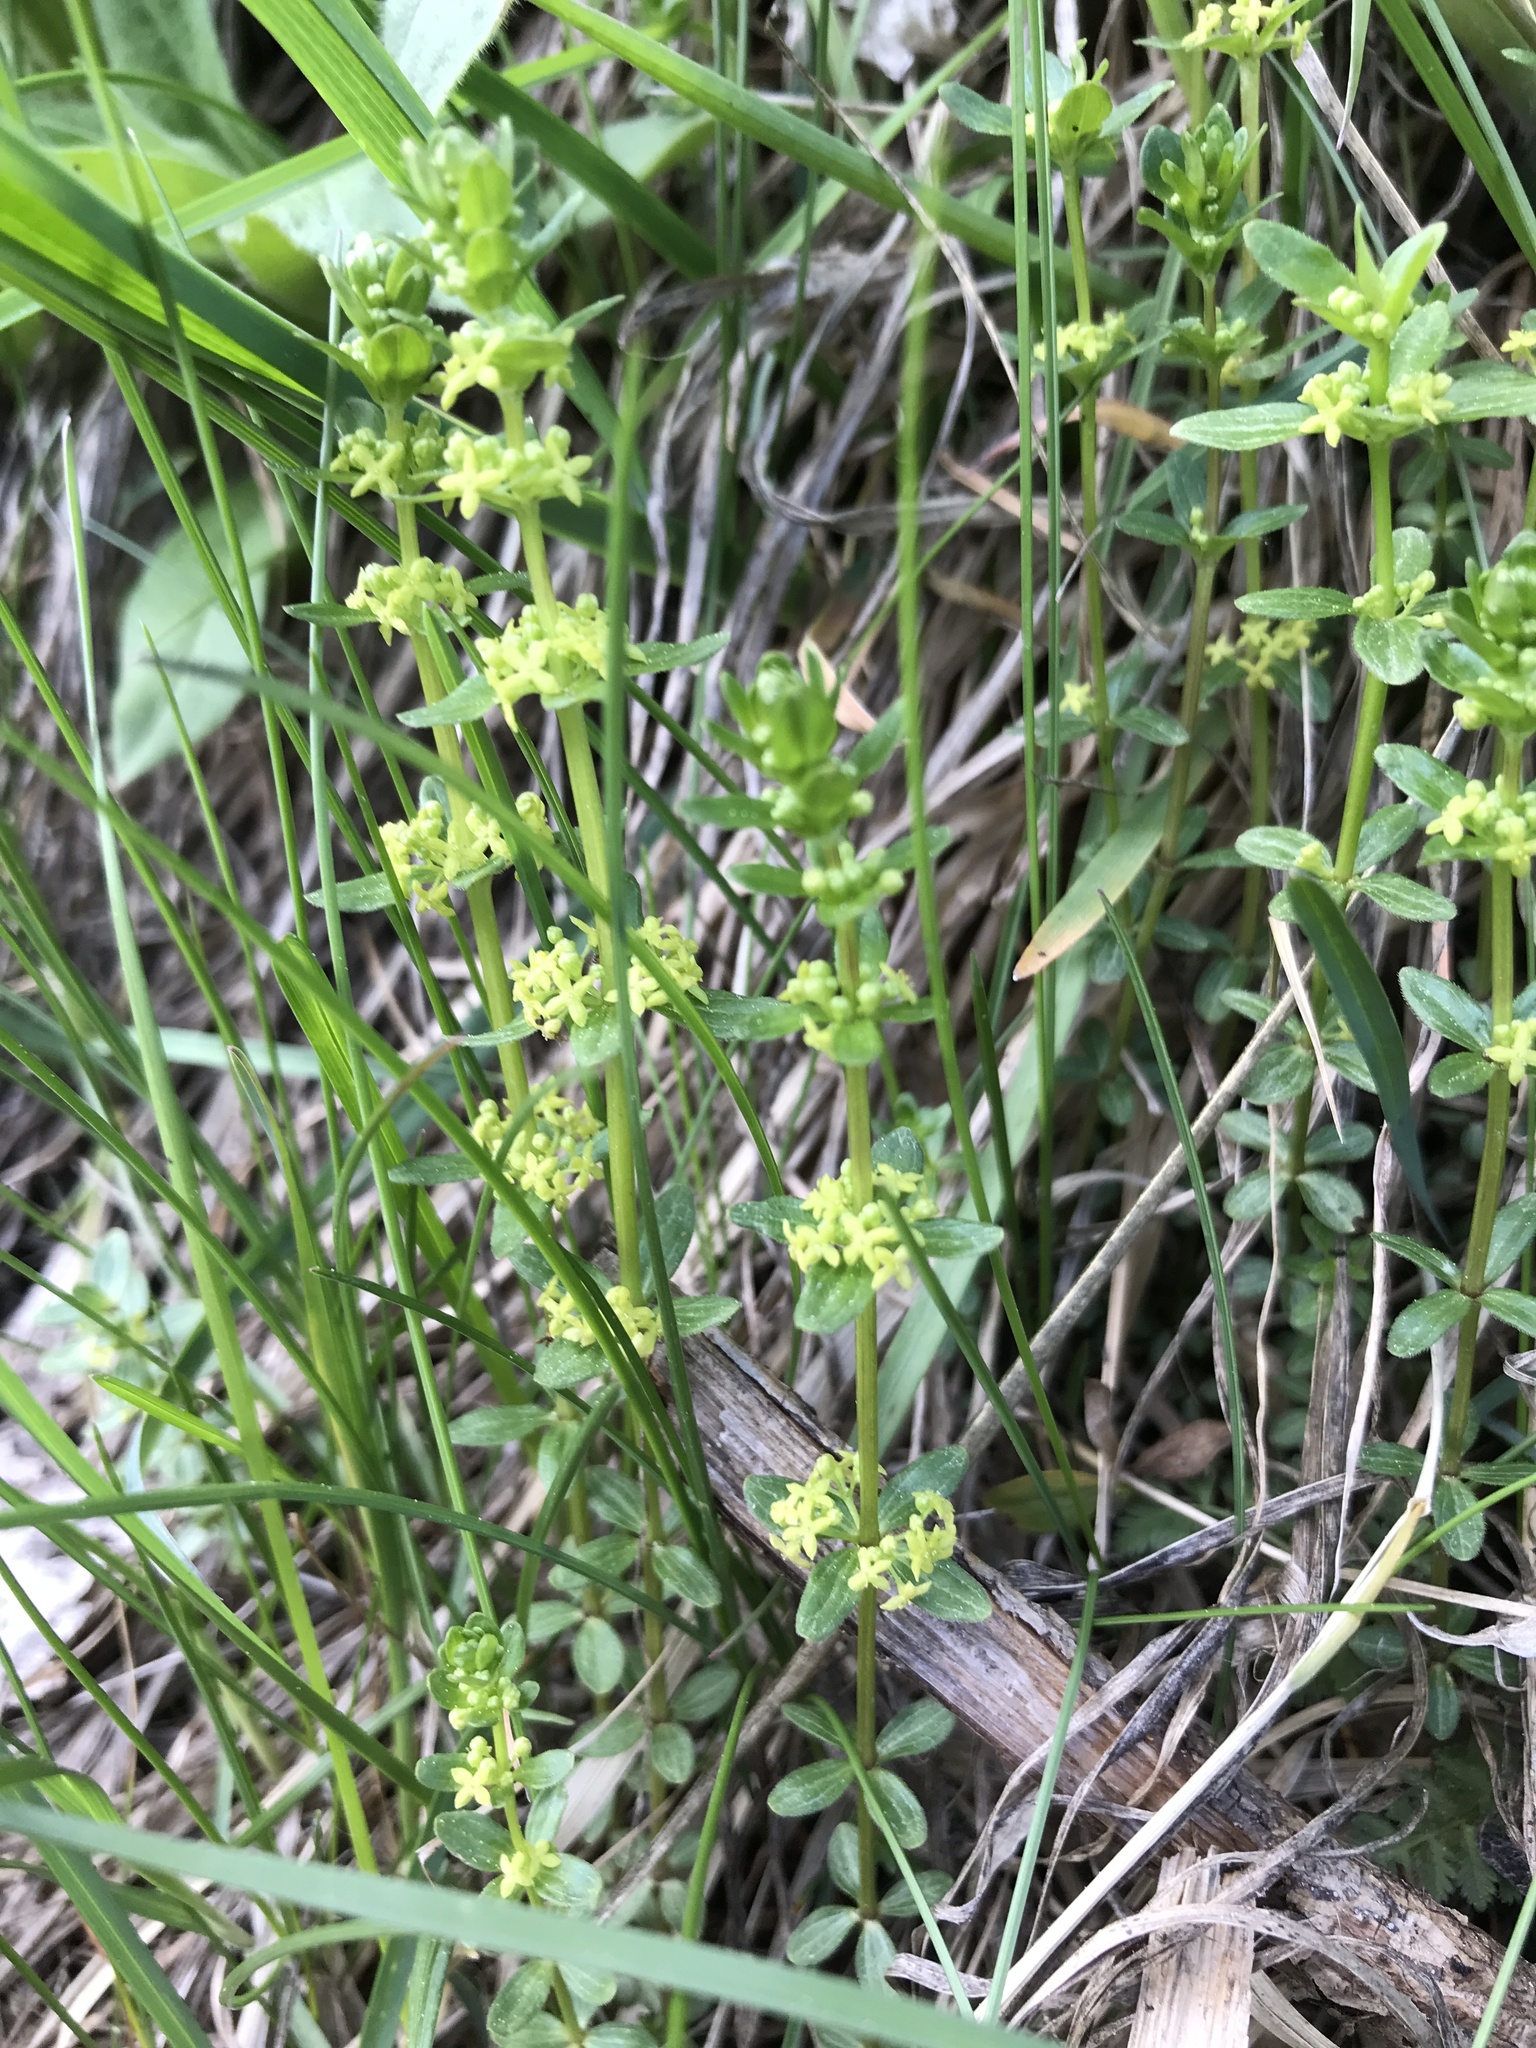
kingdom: Plantae
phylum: Tracheophyta
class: Magnoliopsida
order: Gentianales
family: Rubiaceae
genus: Cruciata
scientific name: Cruciata glabra
